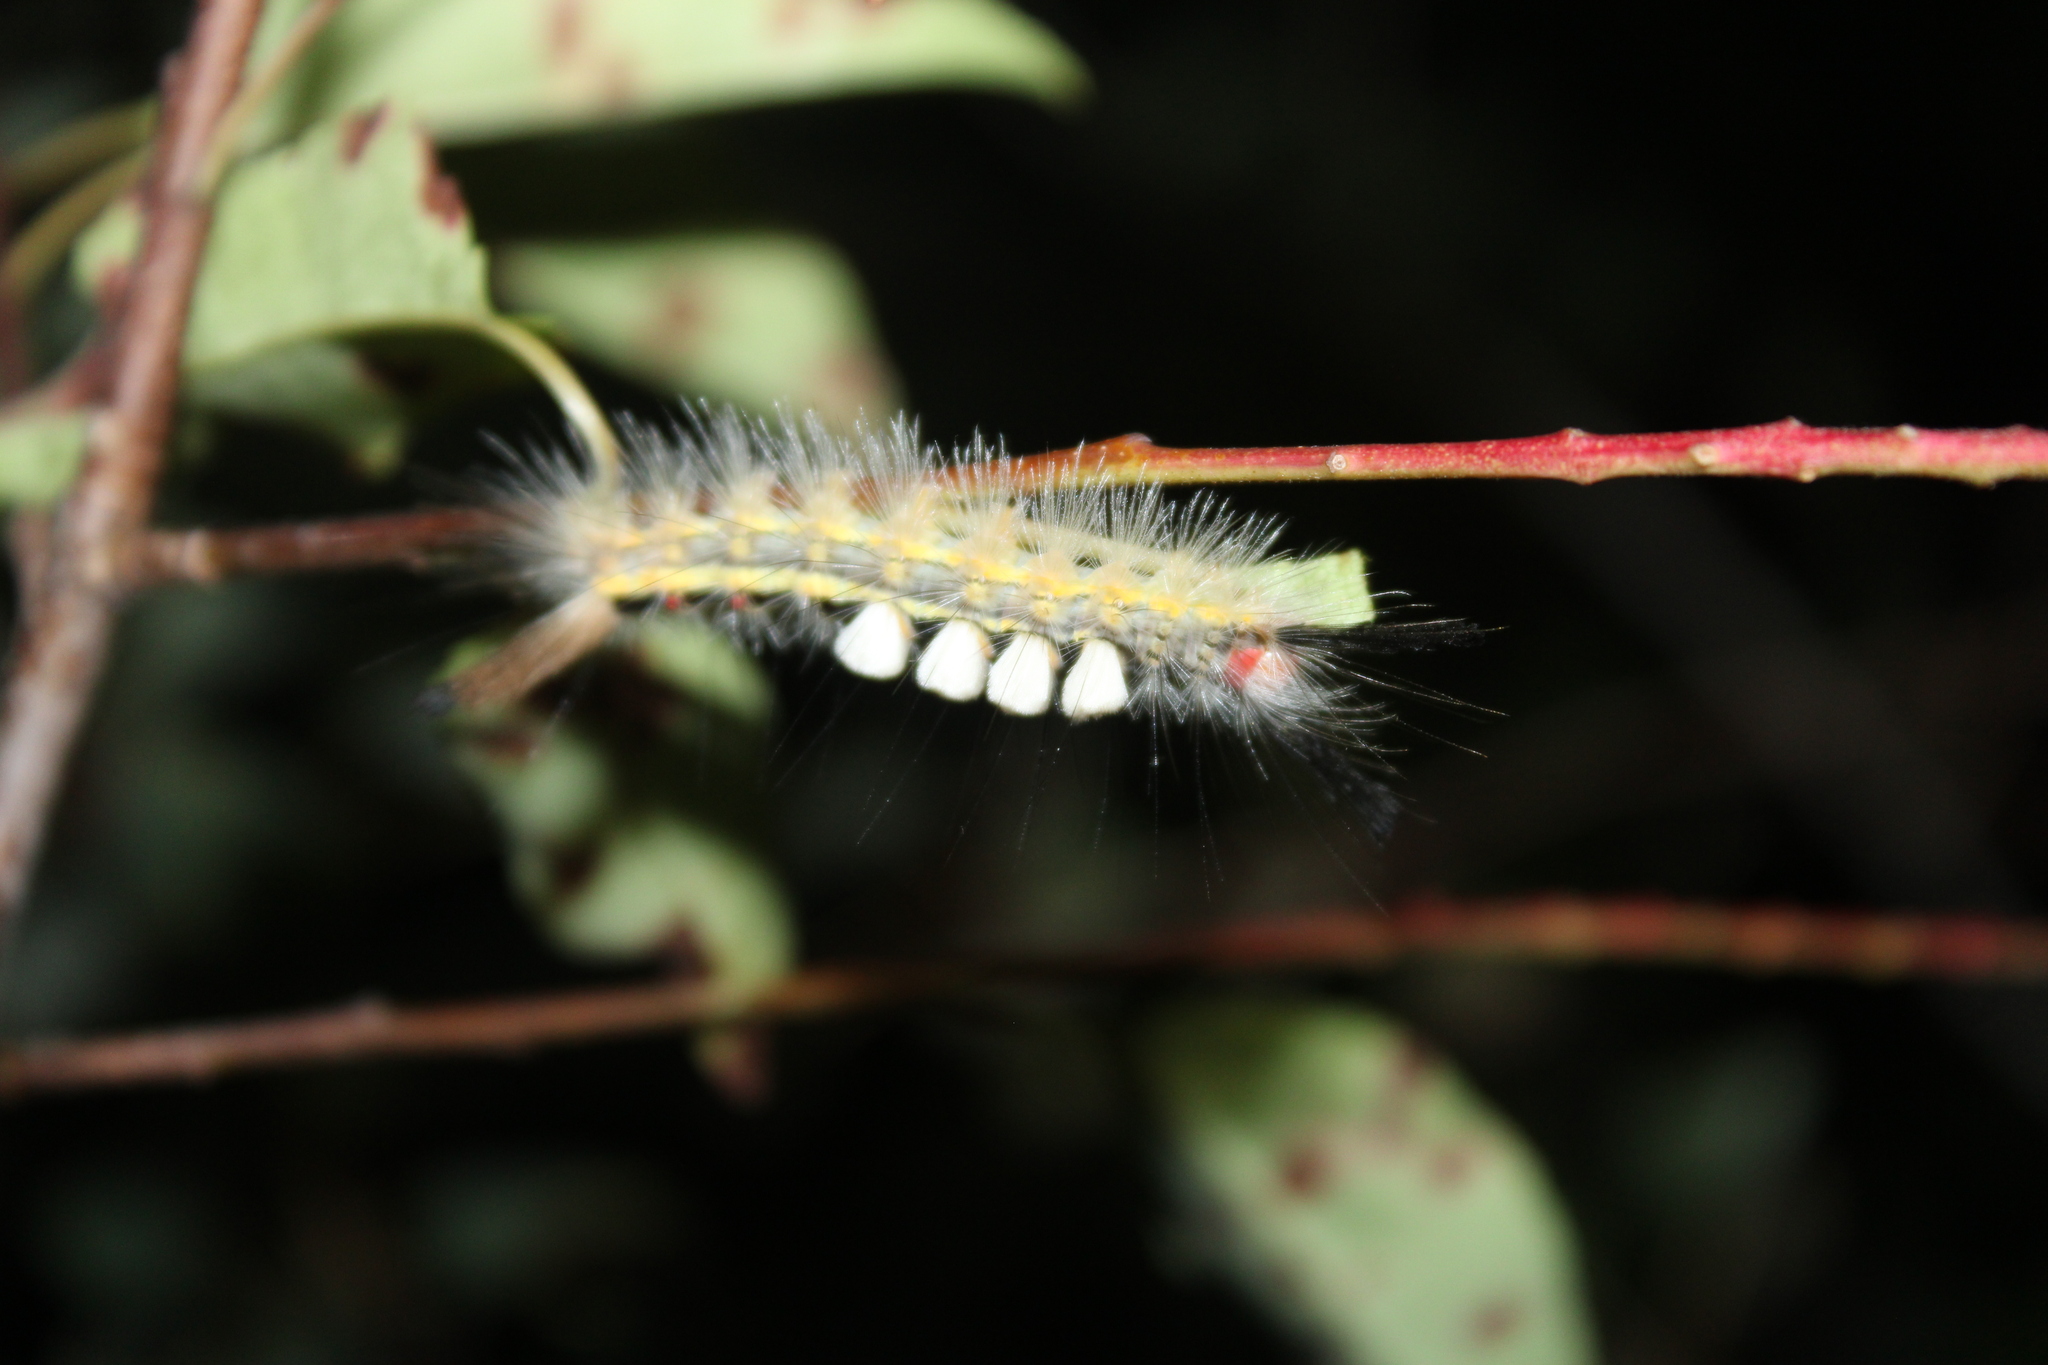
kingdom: Animalia
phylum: Arthropoda
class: Insecta
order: Lepidoptera
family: Erebidae
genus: Orgyia
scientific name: Orgyia leucostigma
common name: White-marked tussock moth
